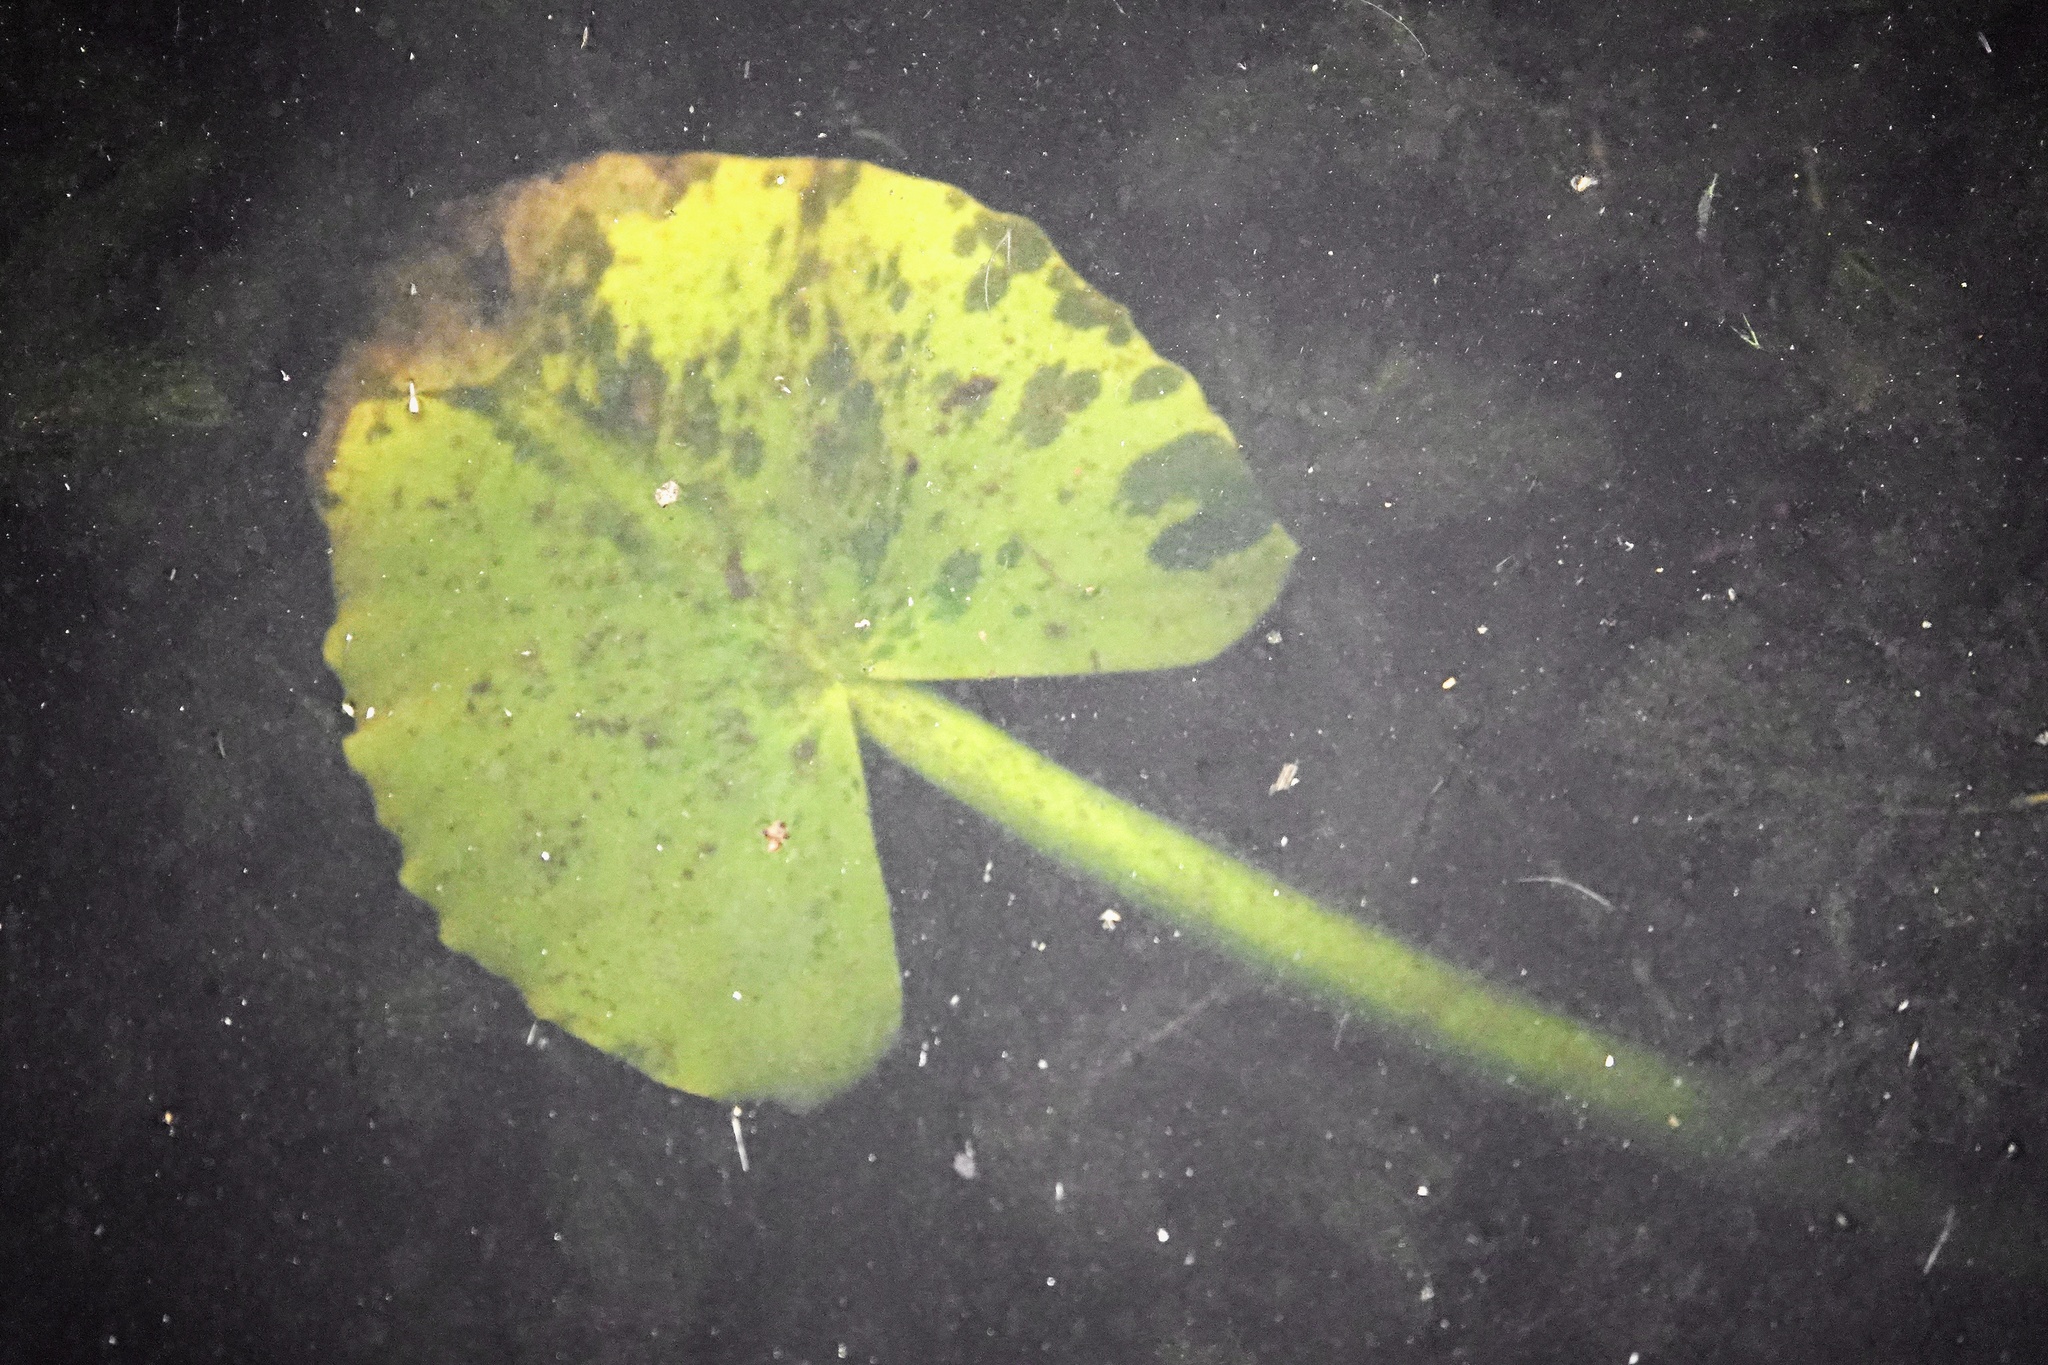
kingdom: Plantae
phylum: Tracheophyta
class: Magnoliopsida
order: Nymphaeales
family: Nymphaeaceae
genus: Nuphar
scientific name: Nuphar advena
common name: Spatter-dock
